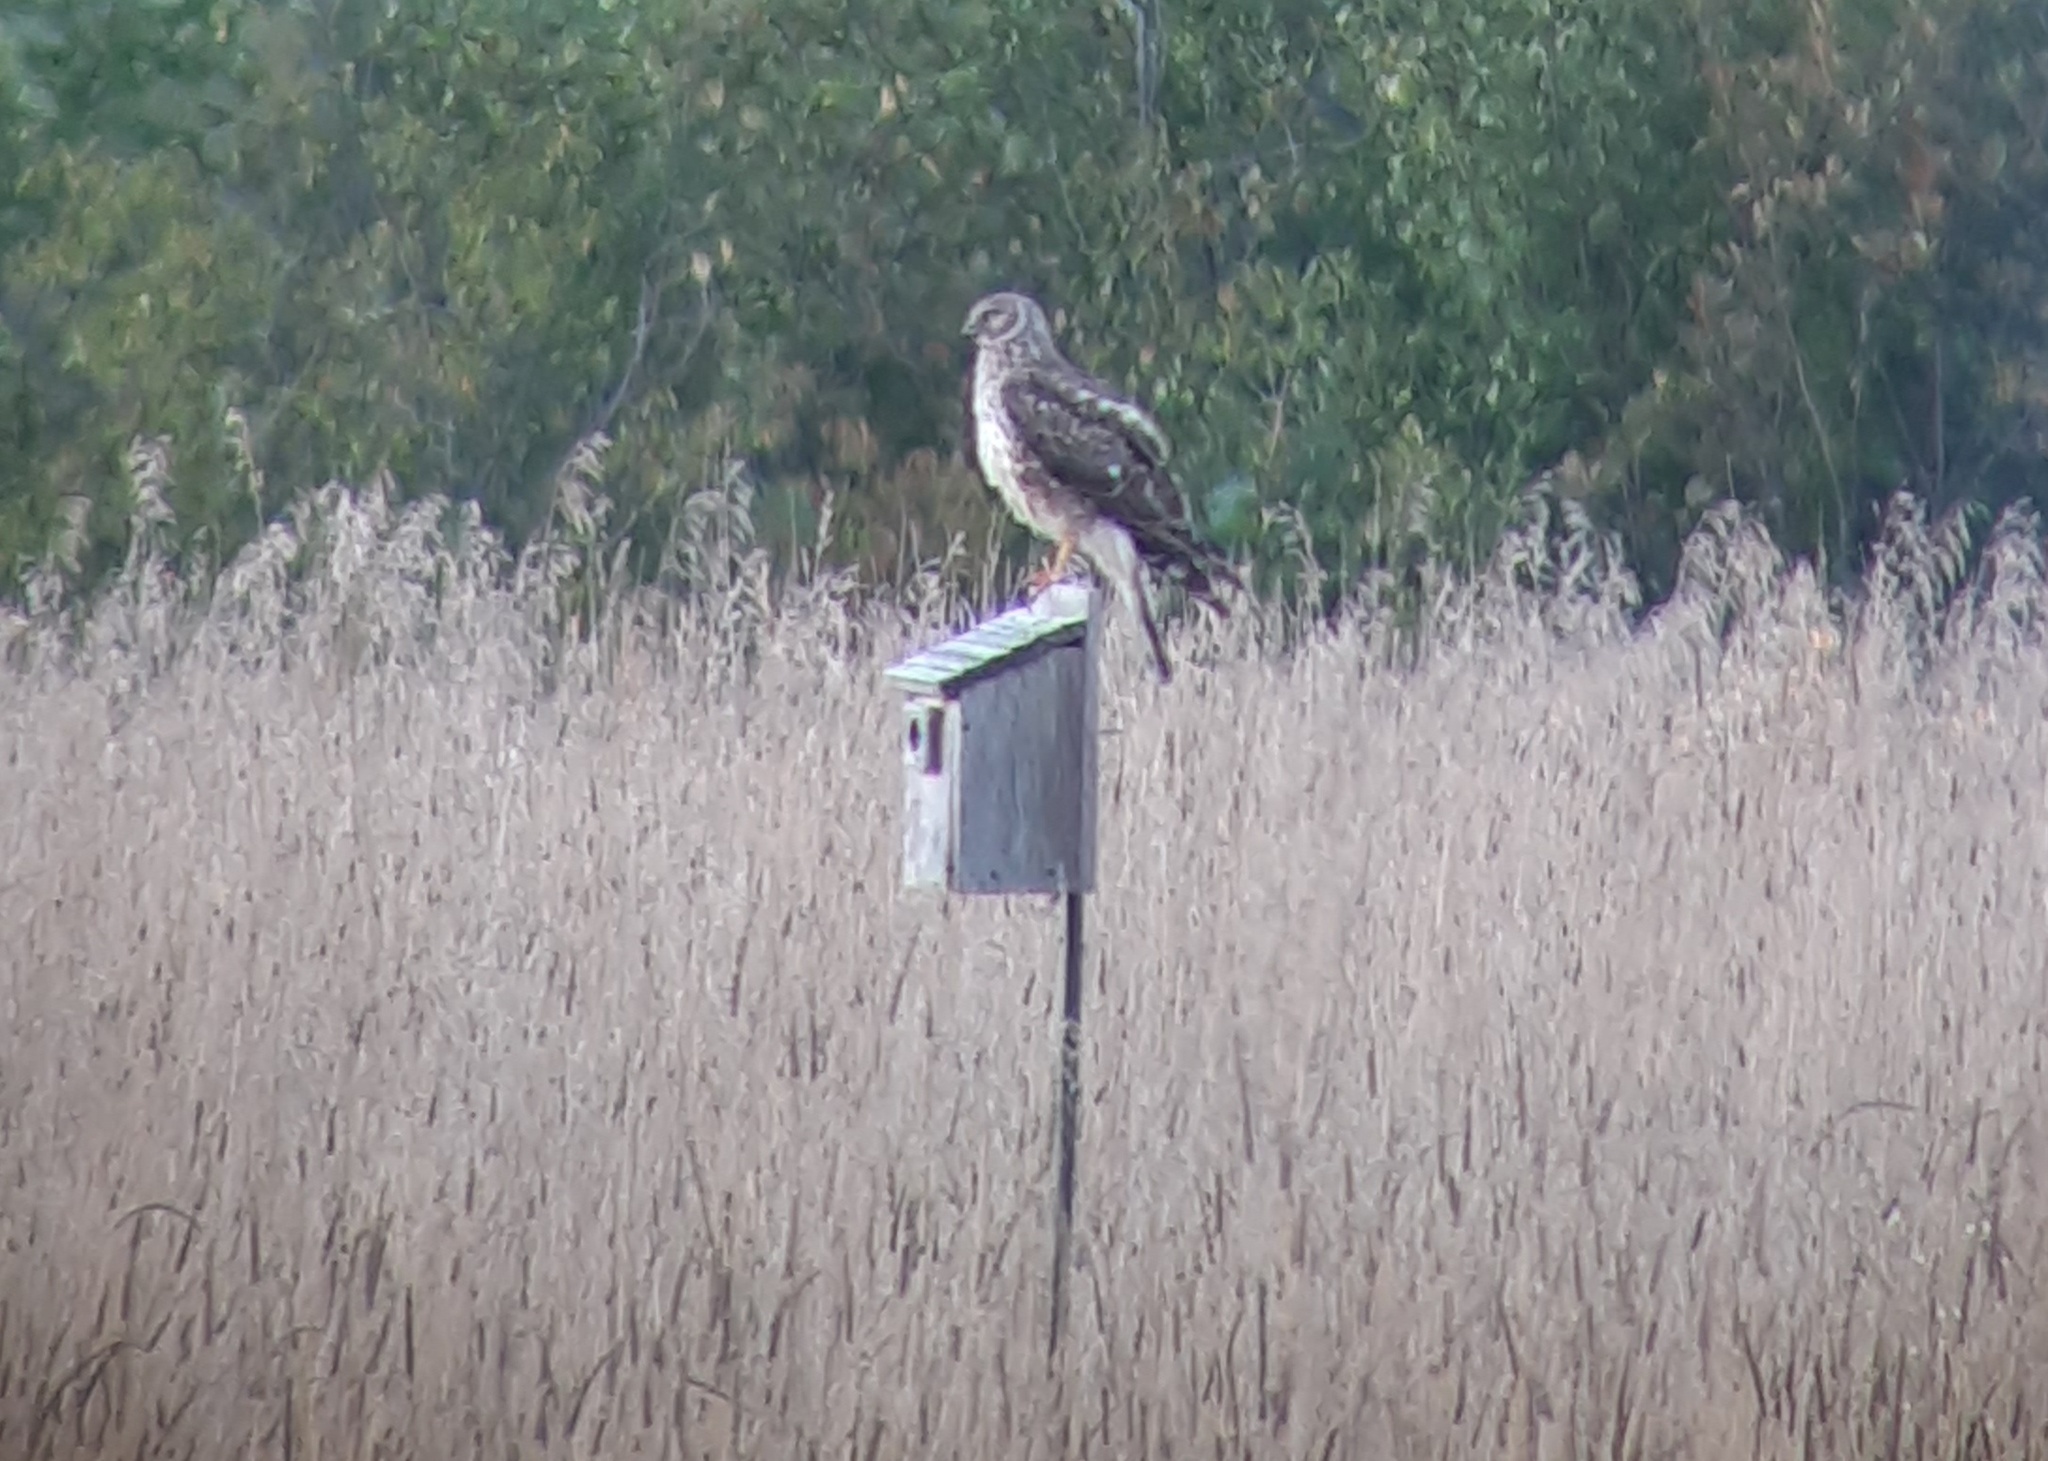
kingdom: Animalia
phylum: Chordata
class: Aves
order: Accipitriformes
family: Accipitridae
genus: Circus
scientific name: Circus cyaneus
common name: Hen harrier
